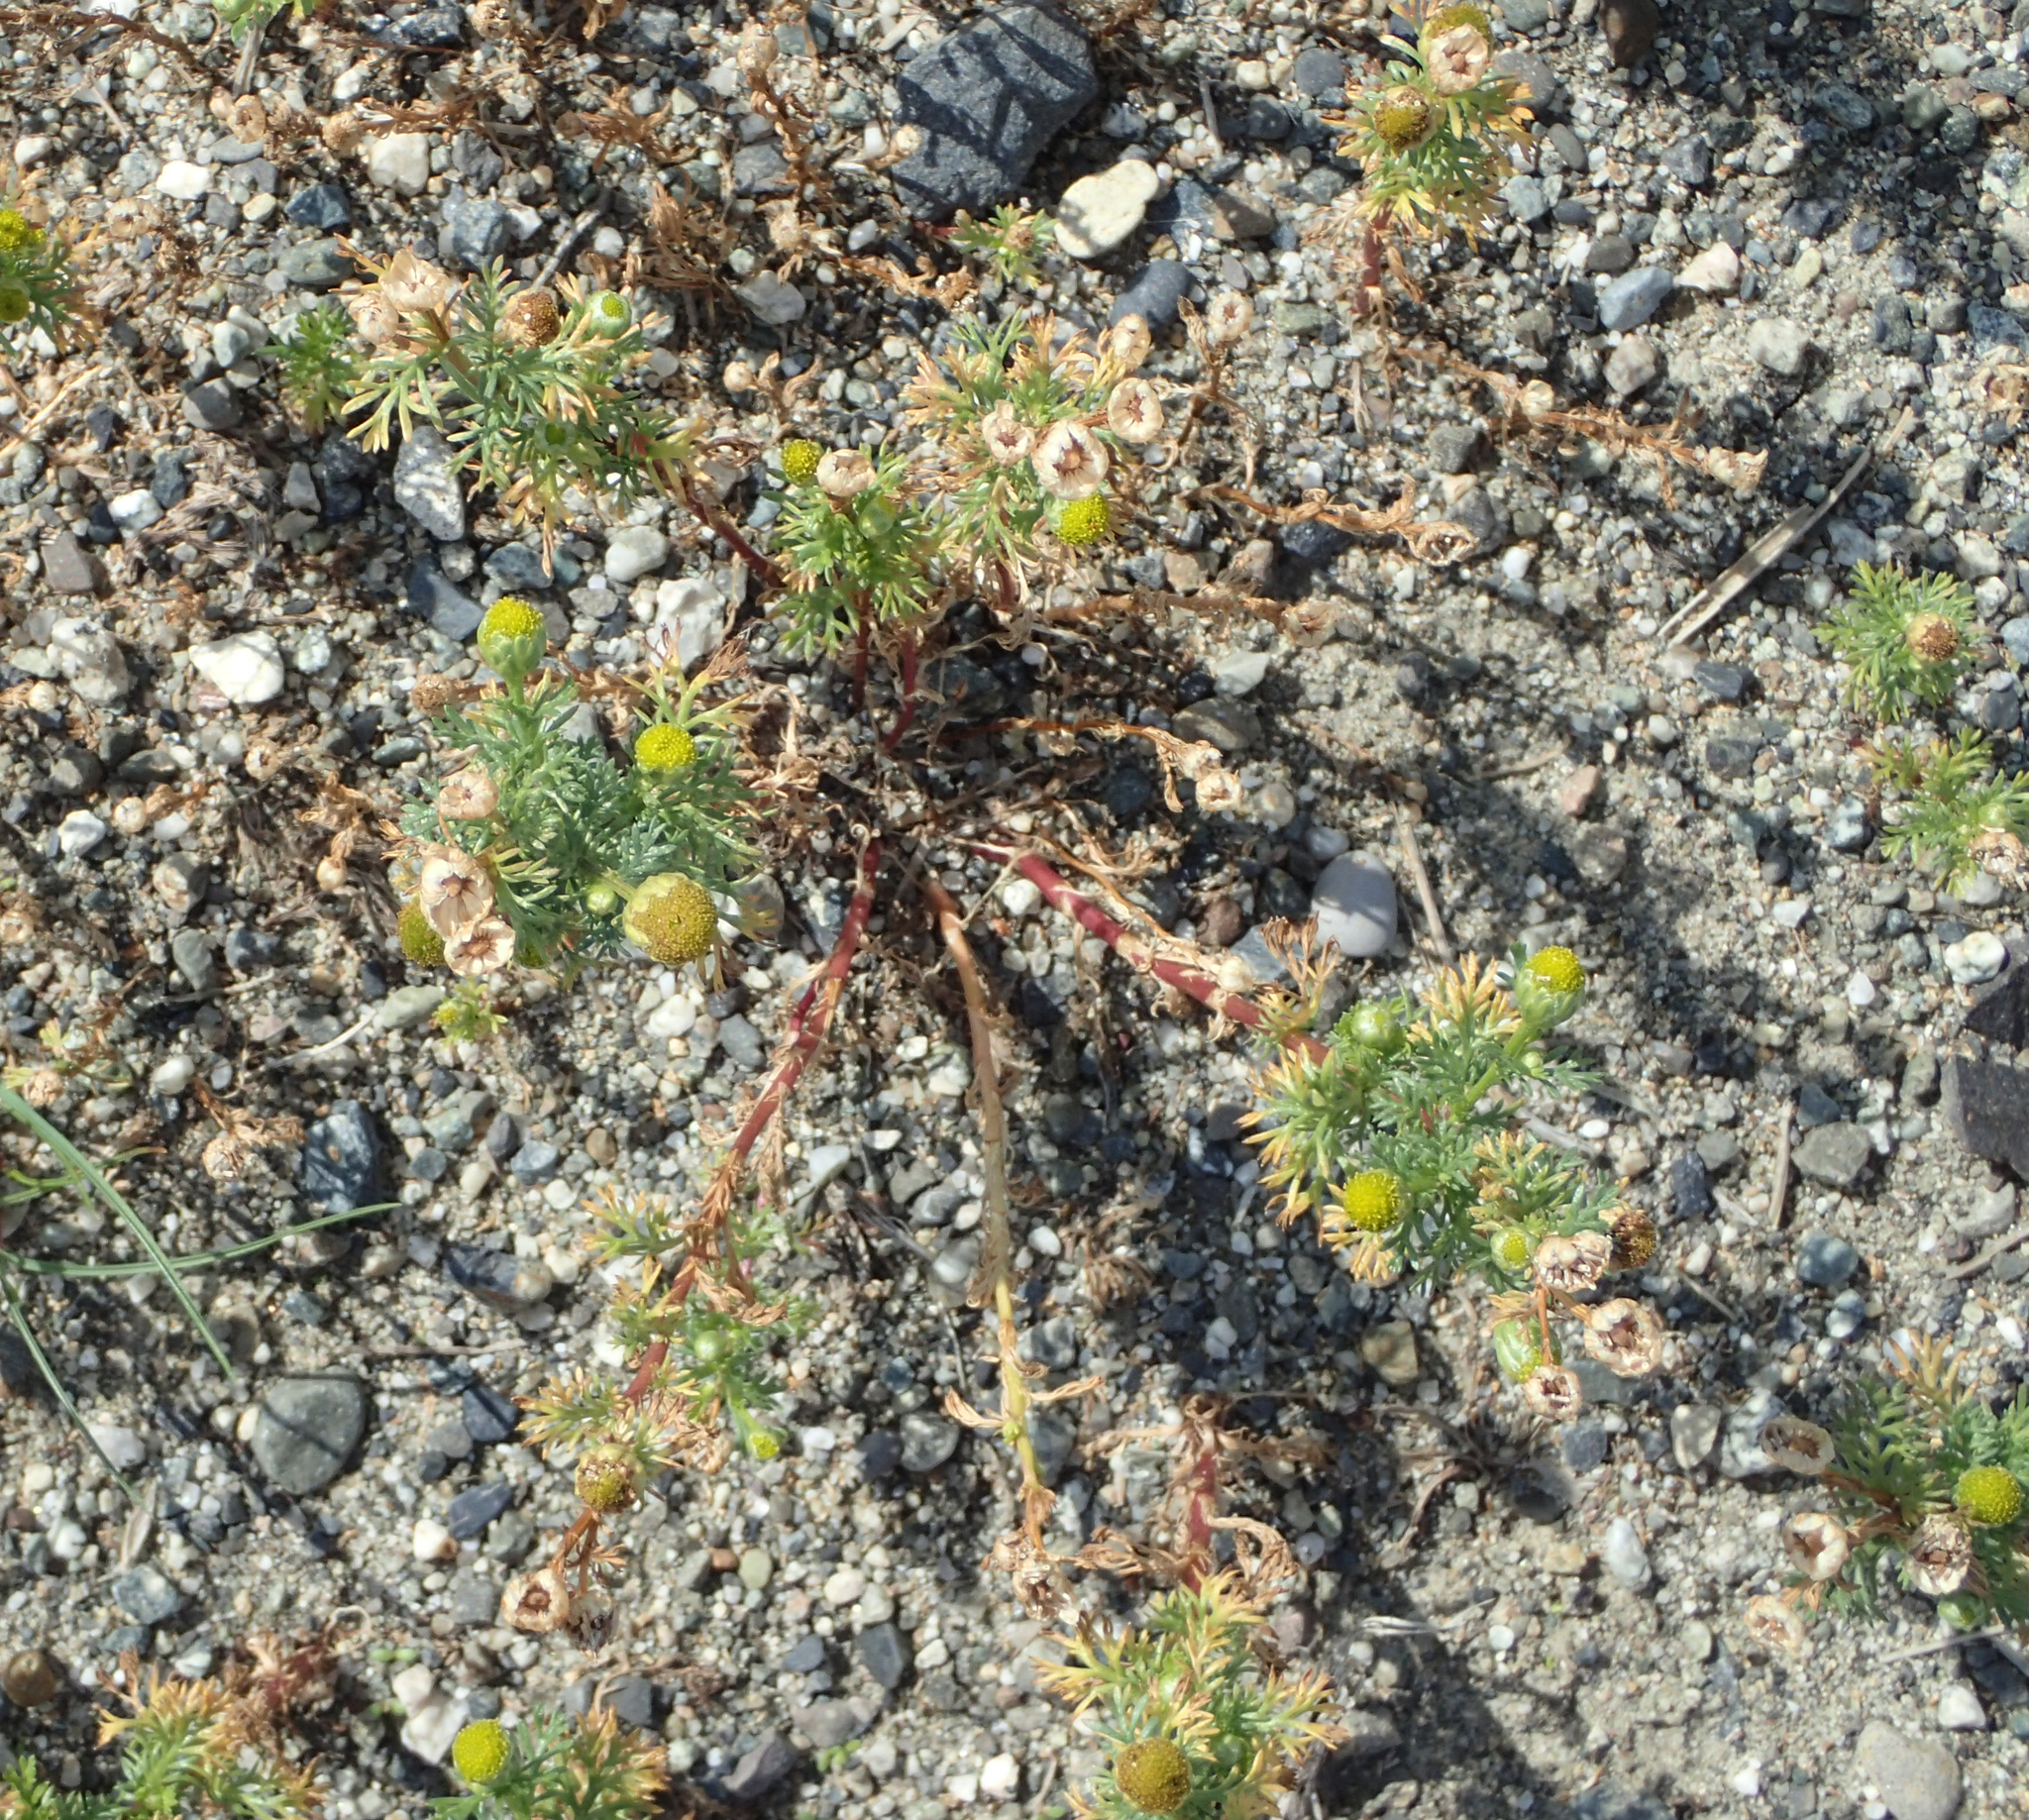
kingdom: Plantae
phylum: Tracheophyta
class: Magnoliopsida
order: Asterales
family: Asteraceae
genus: Matricaria
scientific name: Matricaria discoidea
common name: Disc mayweed
